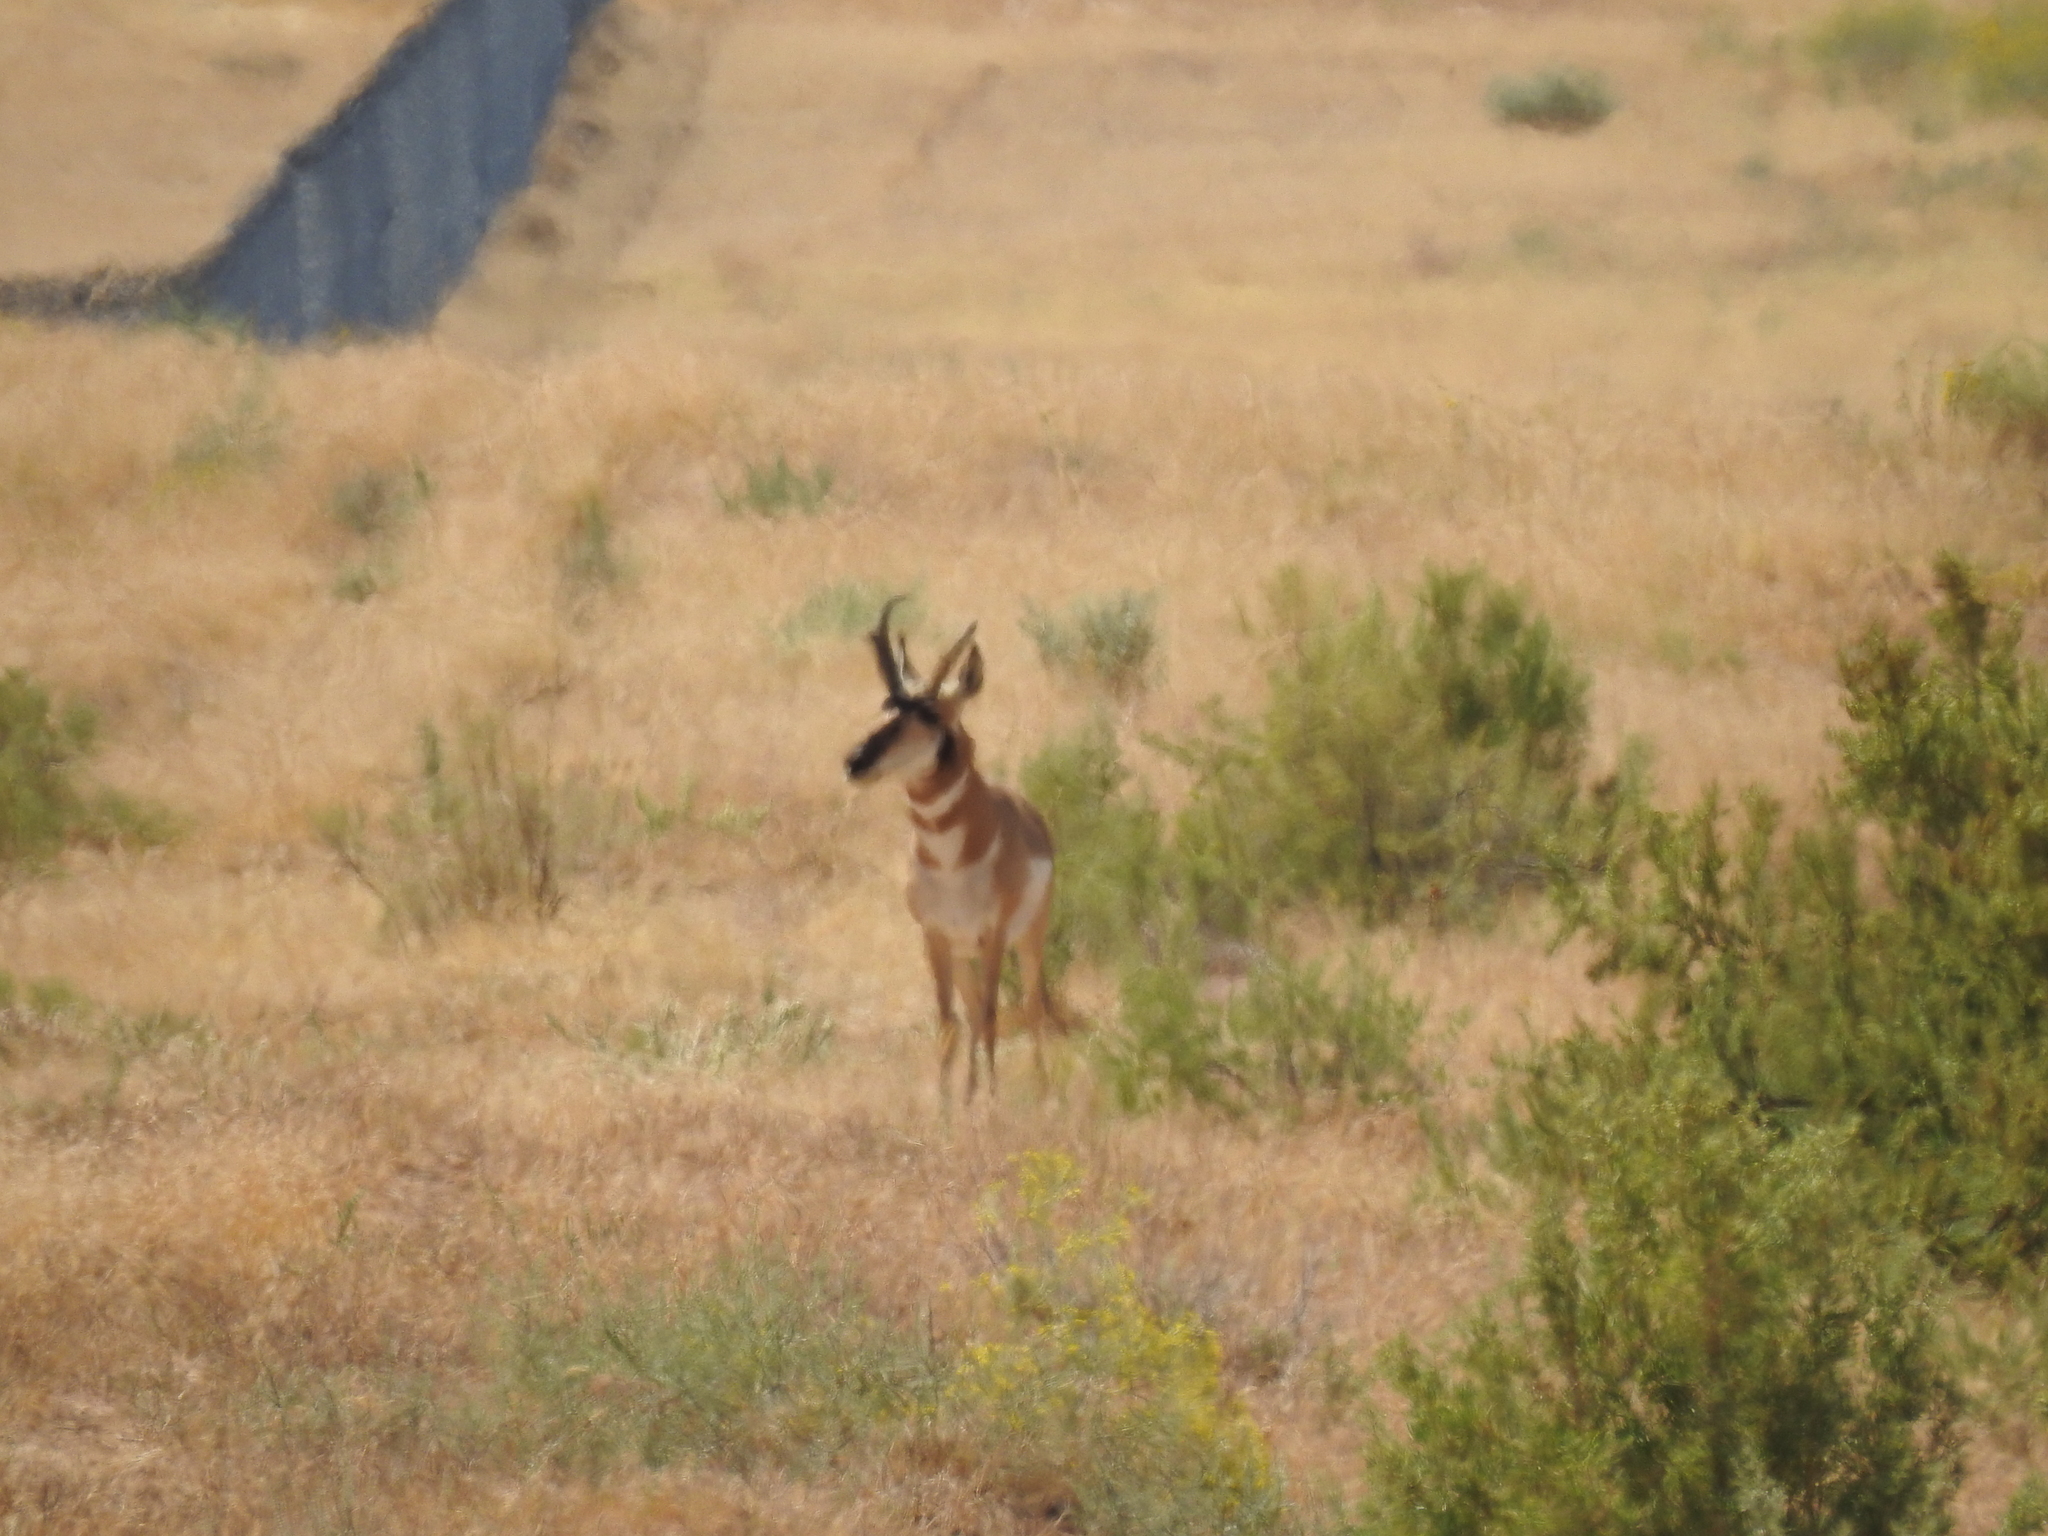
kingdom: Animalia
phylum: Chordata
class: Mammalia
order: Artiodactyla
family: Antilocapridae
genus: Antilocapra
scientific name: Antilocapra americana
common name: Pronghorn
